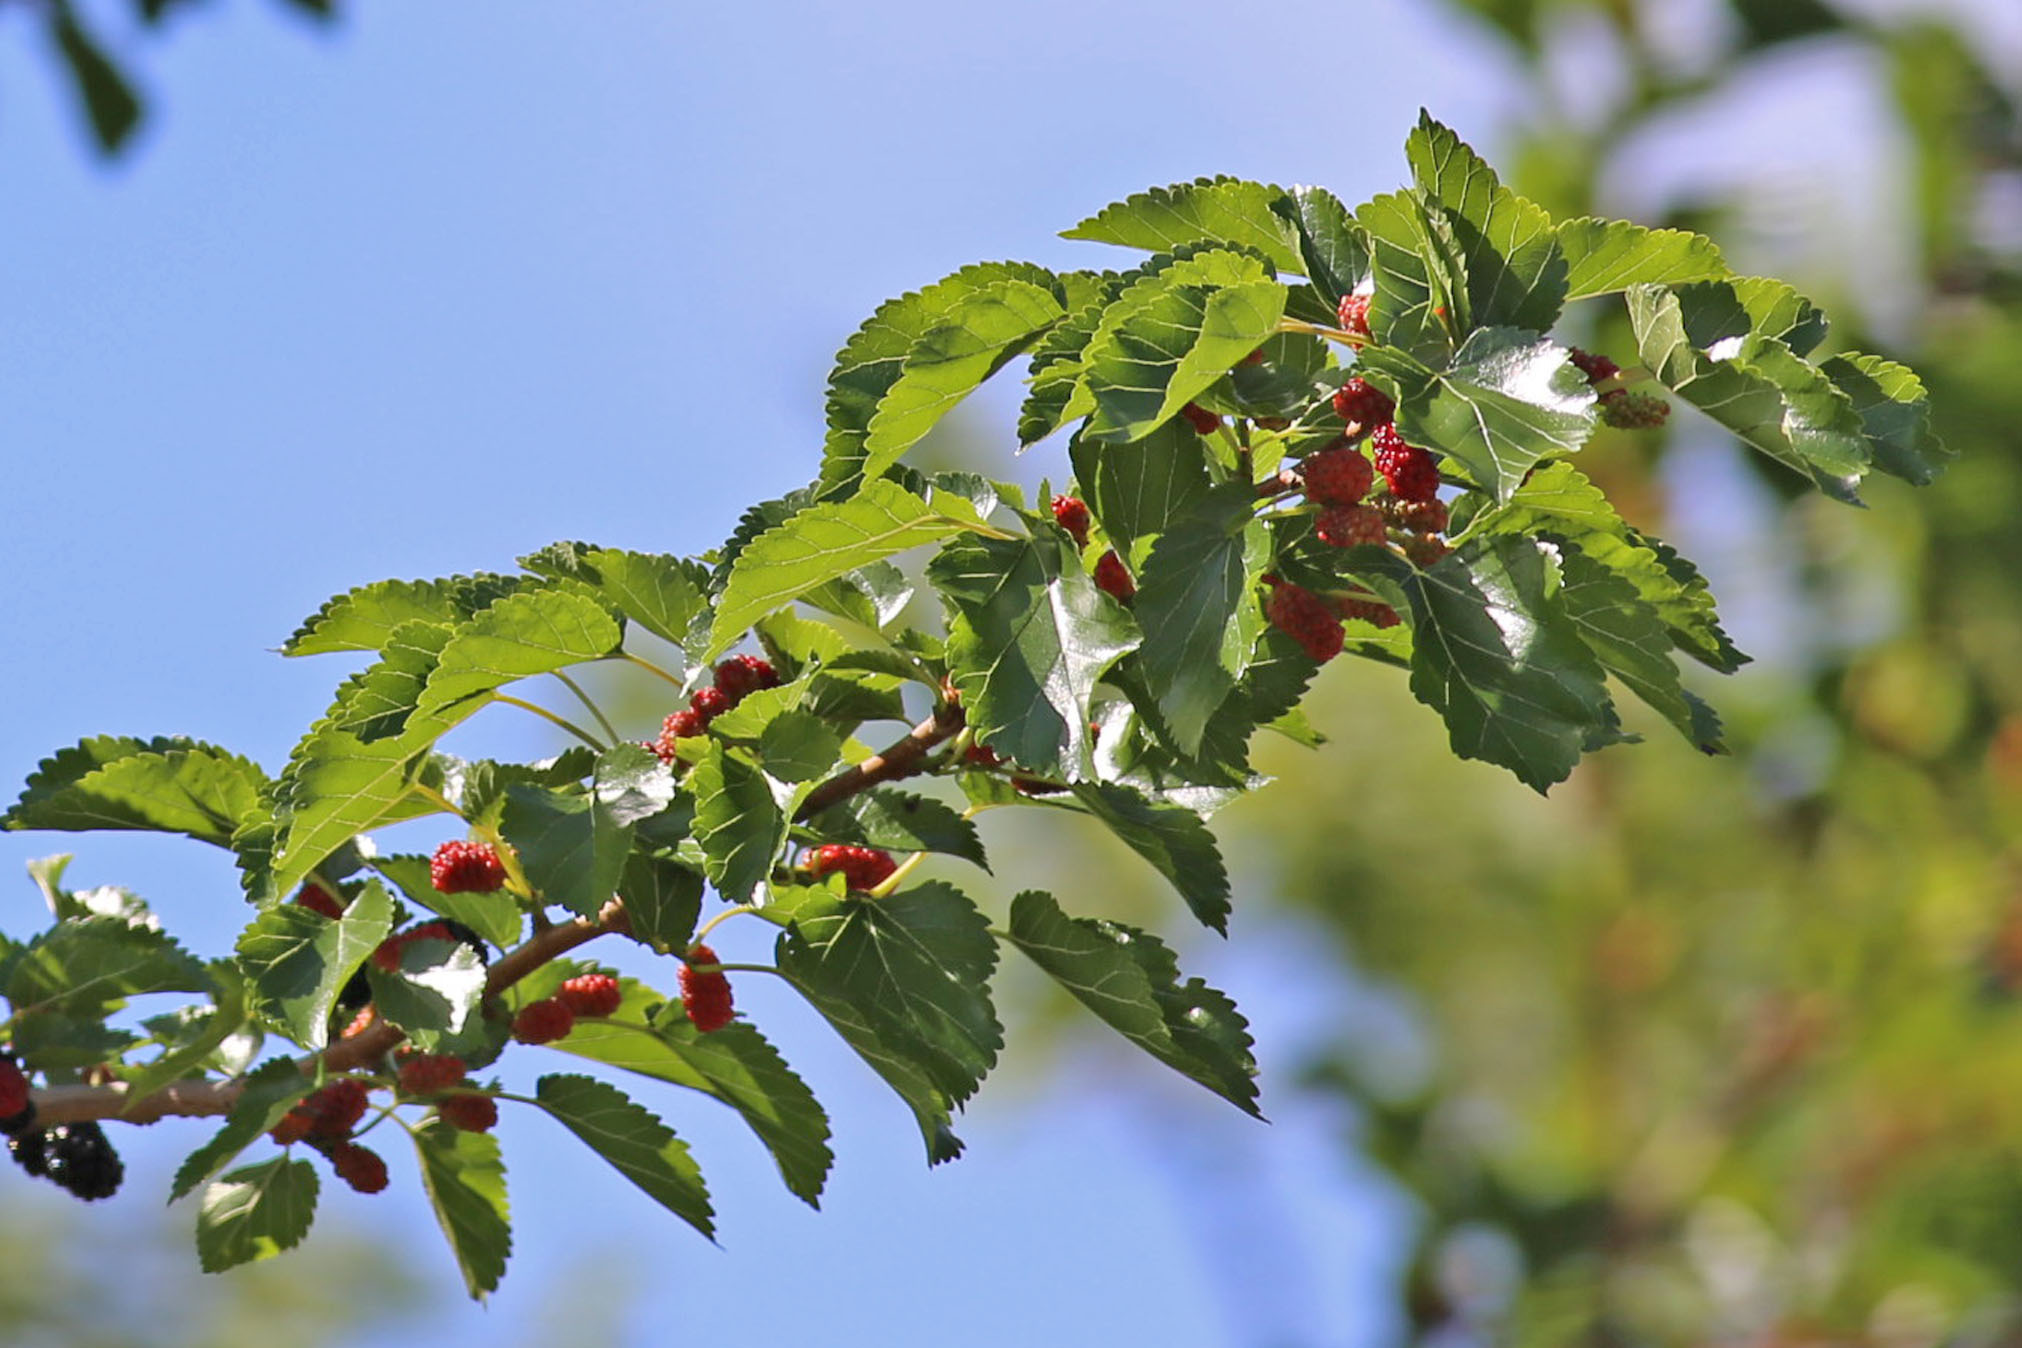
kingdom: Plantae
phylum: Tracheophyta
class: Magnoliopsida
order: Rosales
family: Moraceae
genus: Morus
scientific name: Morus alba
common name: White mulberry
